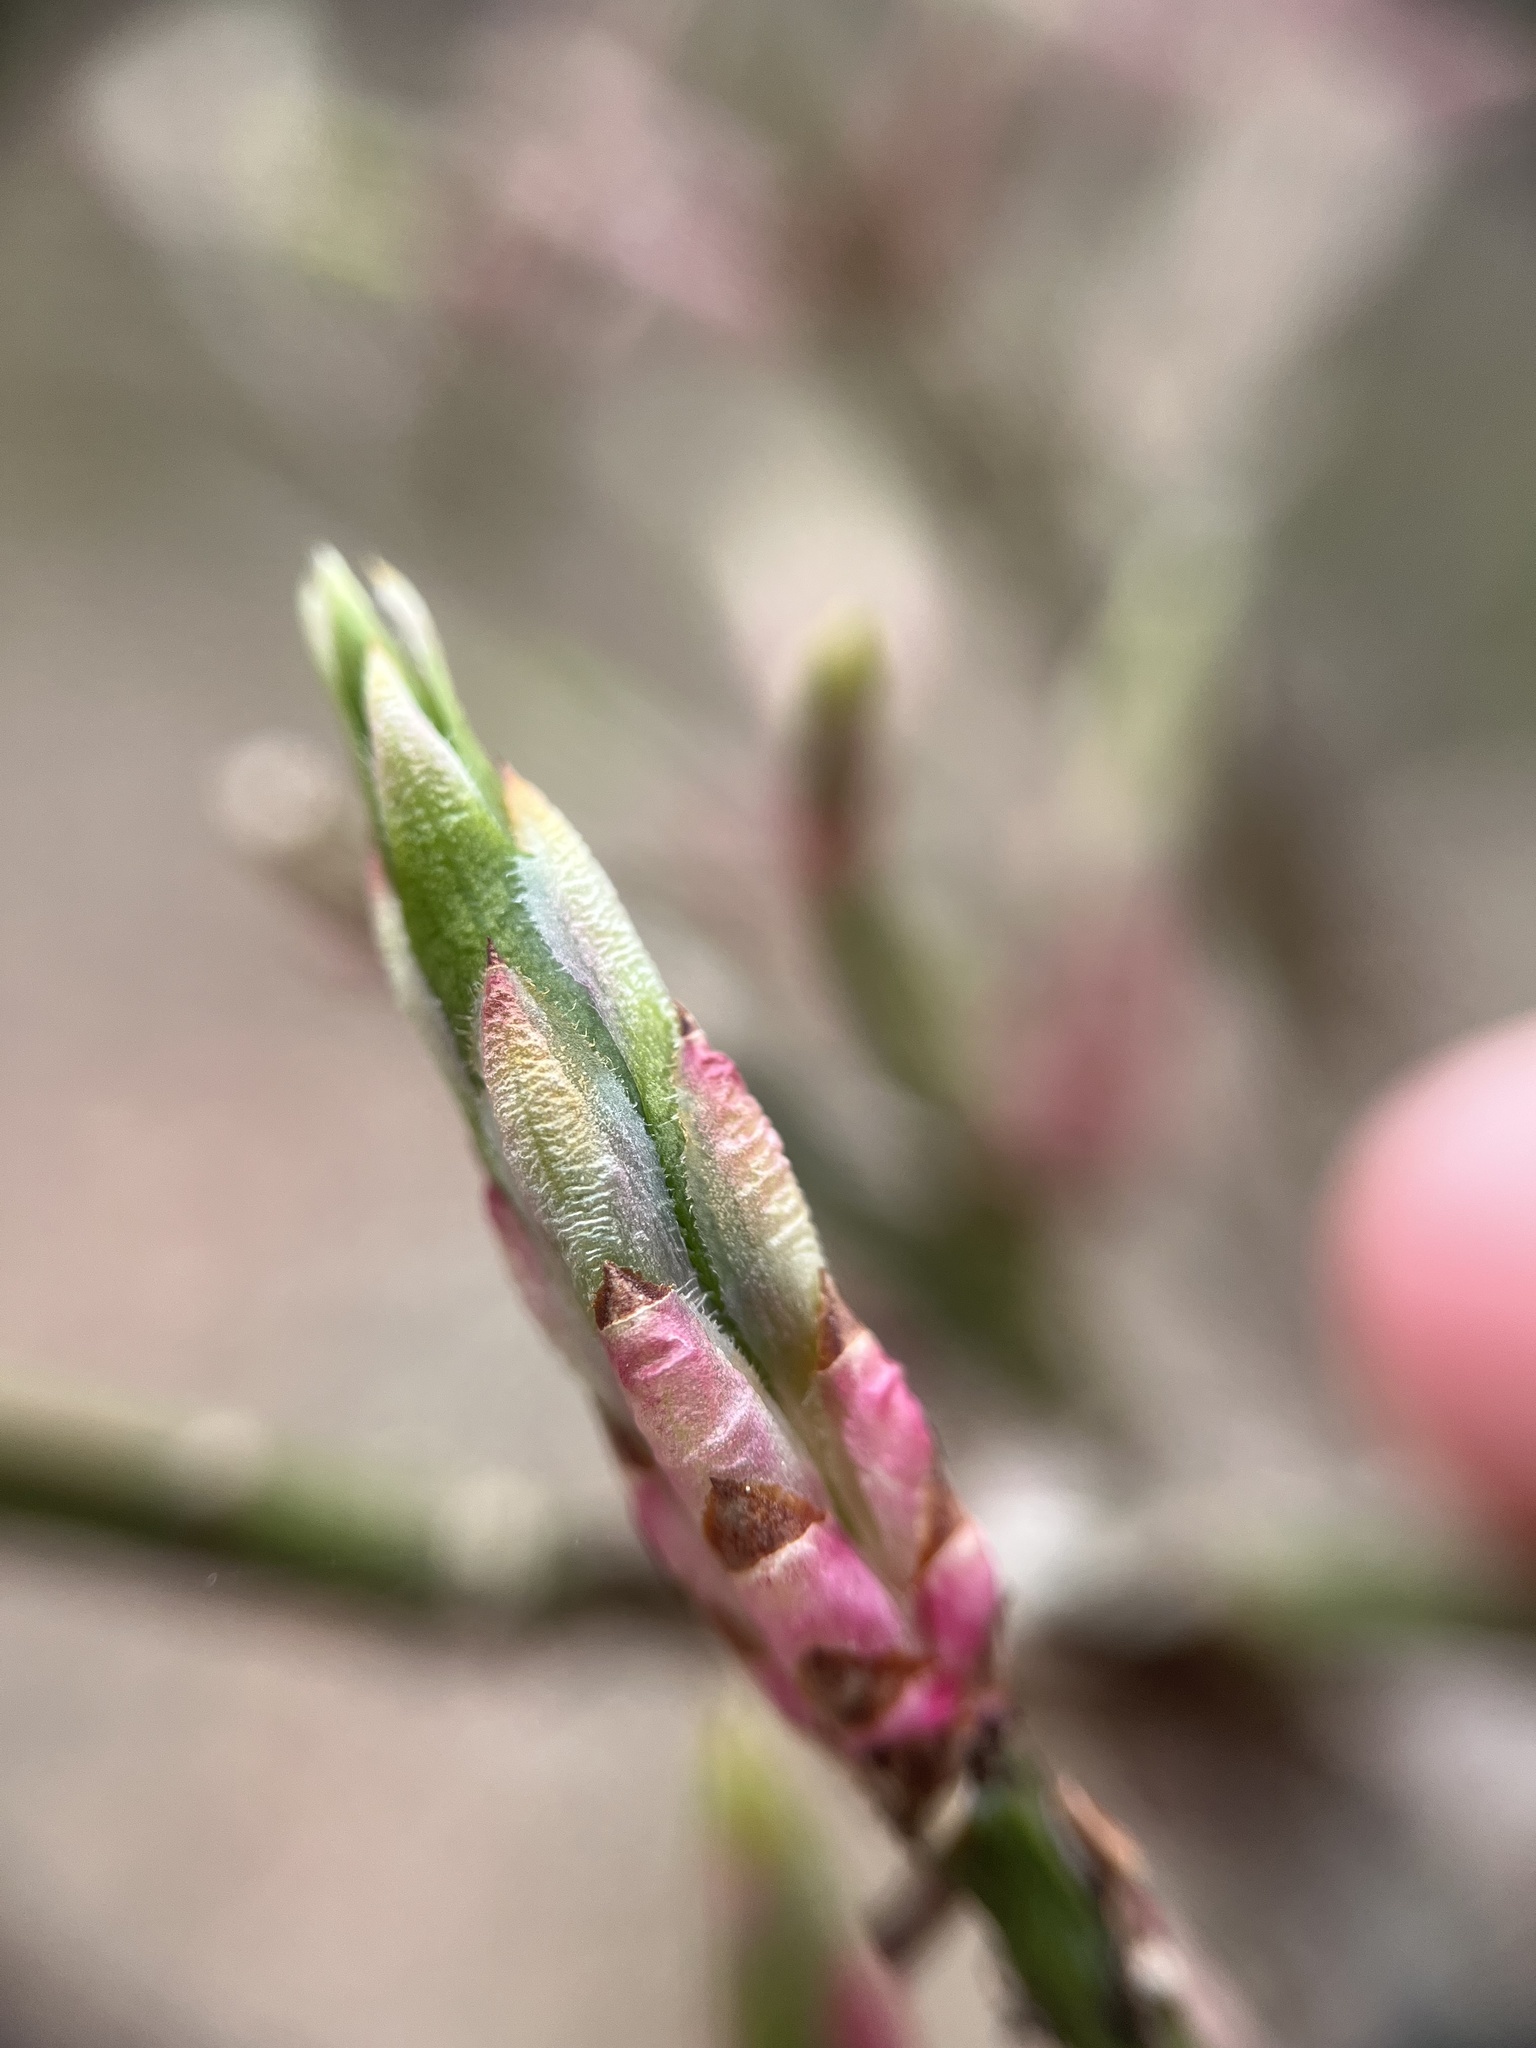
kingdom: Plantae
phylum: Tracheophyta
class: Magnoliopsida
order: Celastrales
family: Celastraceae
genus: Euonymus
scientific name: Euonymus alatus
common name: Winged euonymus
